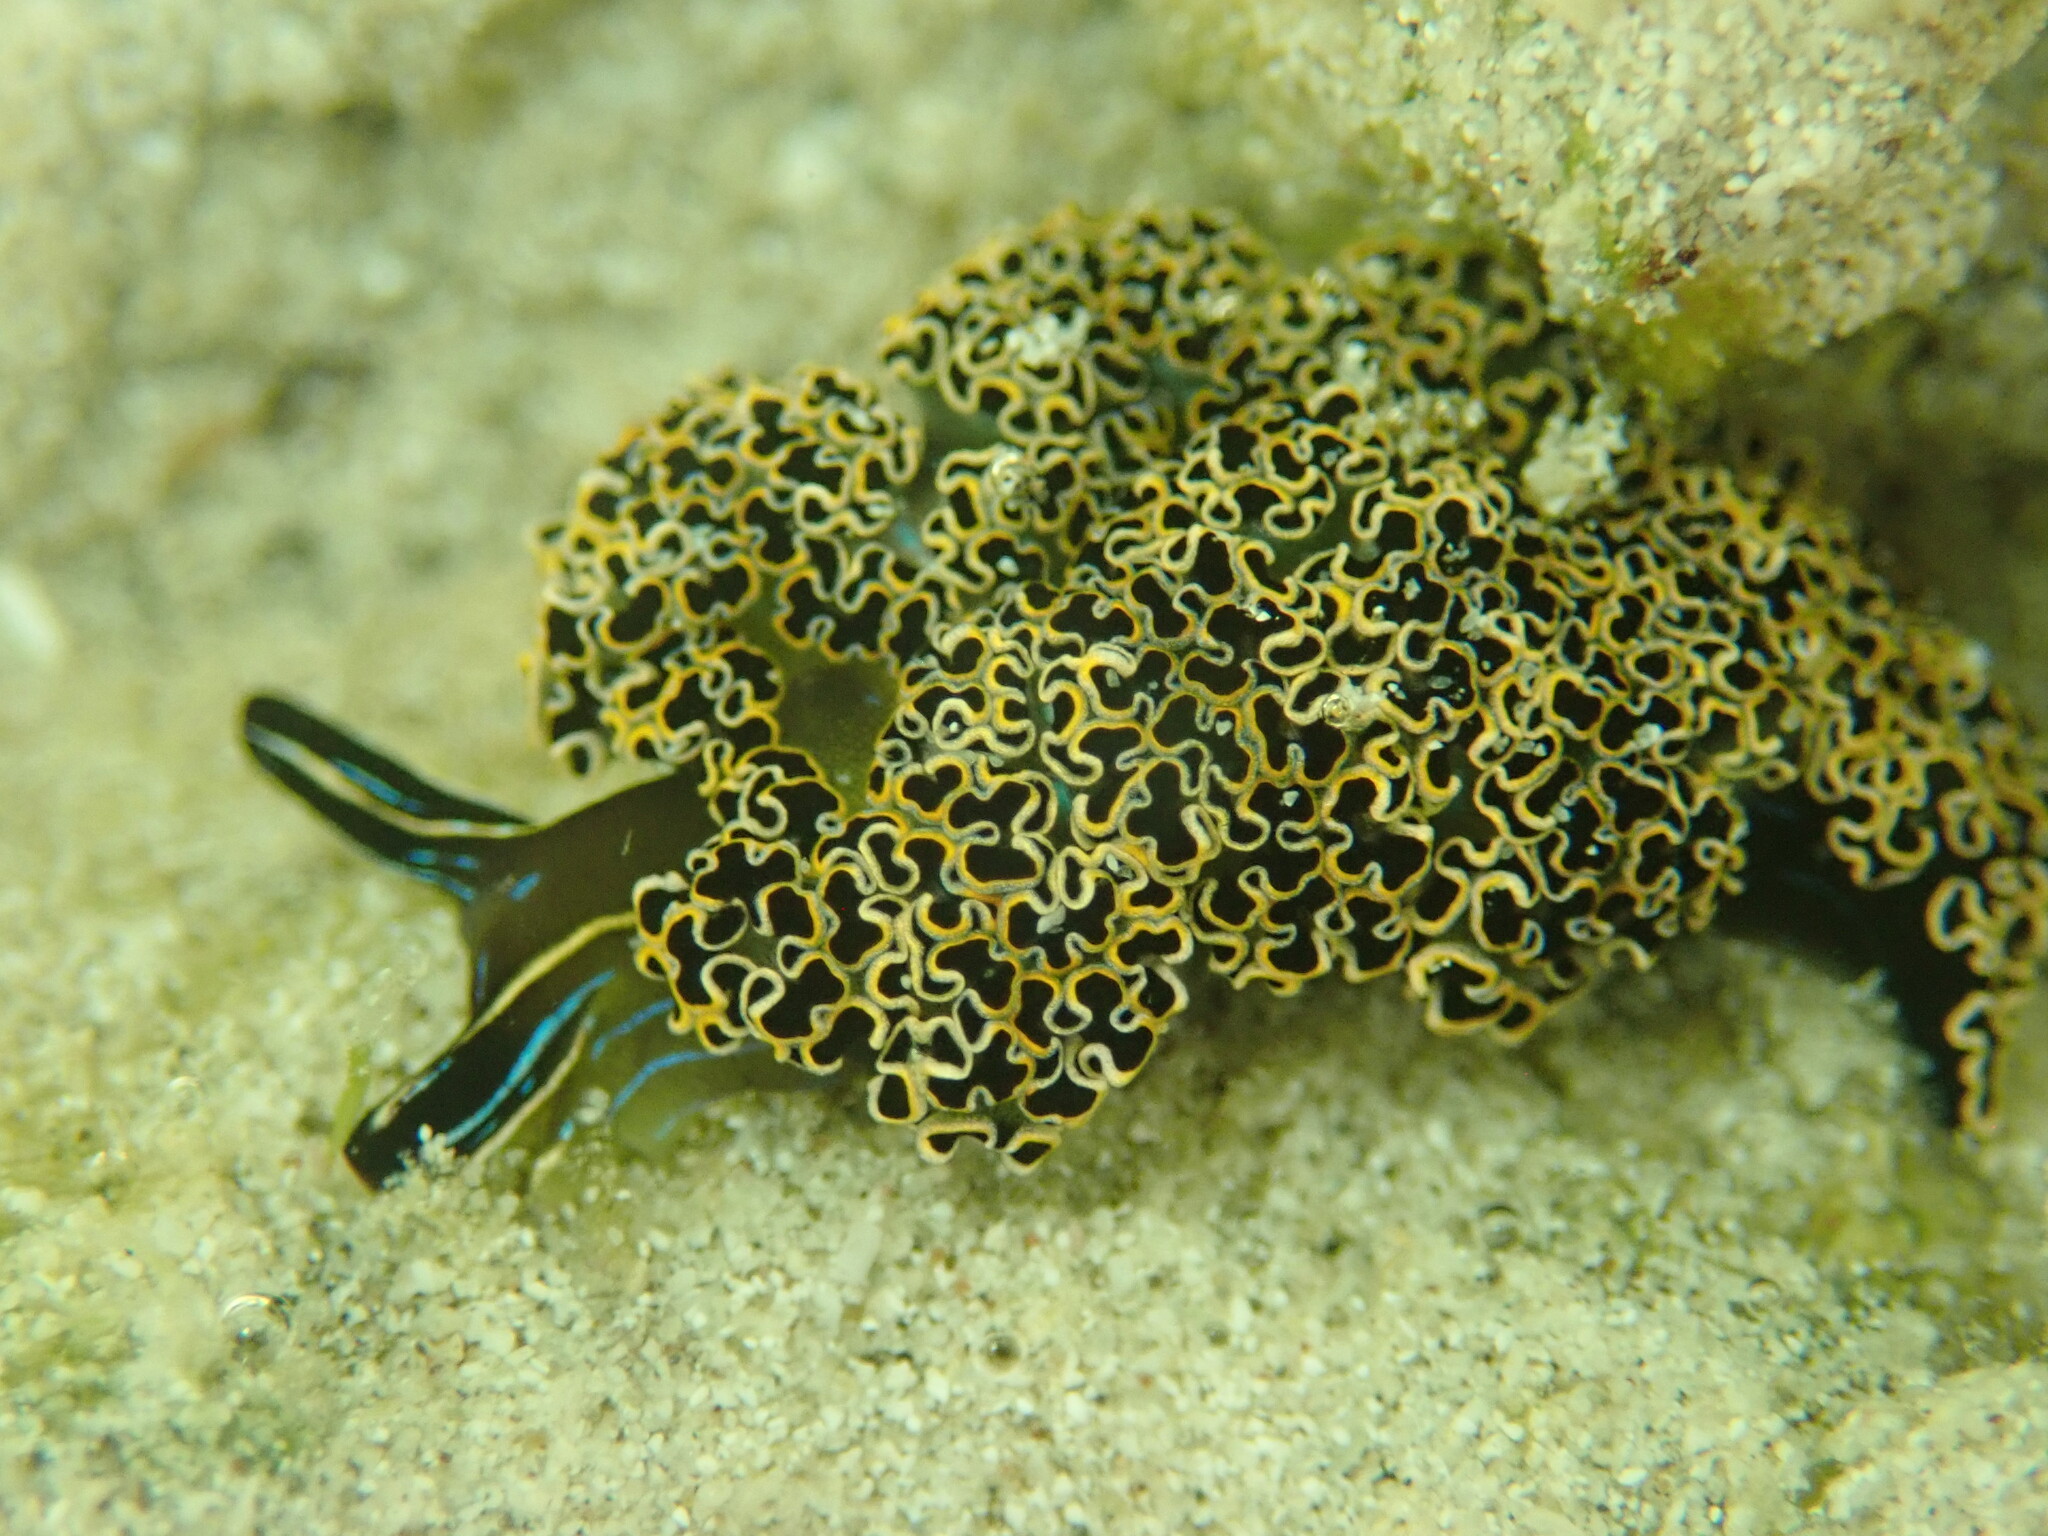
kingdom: Animalia
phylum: Mollusca
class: Gastropoda
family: Plakobranchidae
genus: Elysia
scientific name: Elysia diomedea
